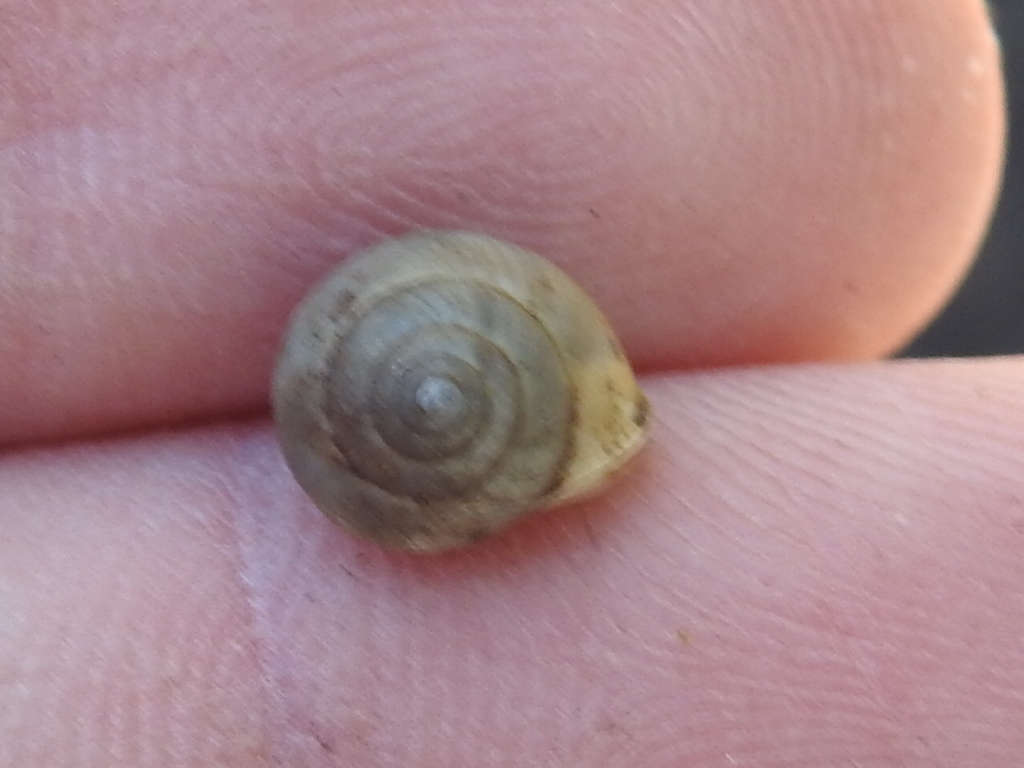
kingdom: Animalia
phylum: Mollusca
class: Gastropoda
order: Cycloneritida
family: Helicinidae
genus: Helicina
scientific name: Helicina orbiculata
